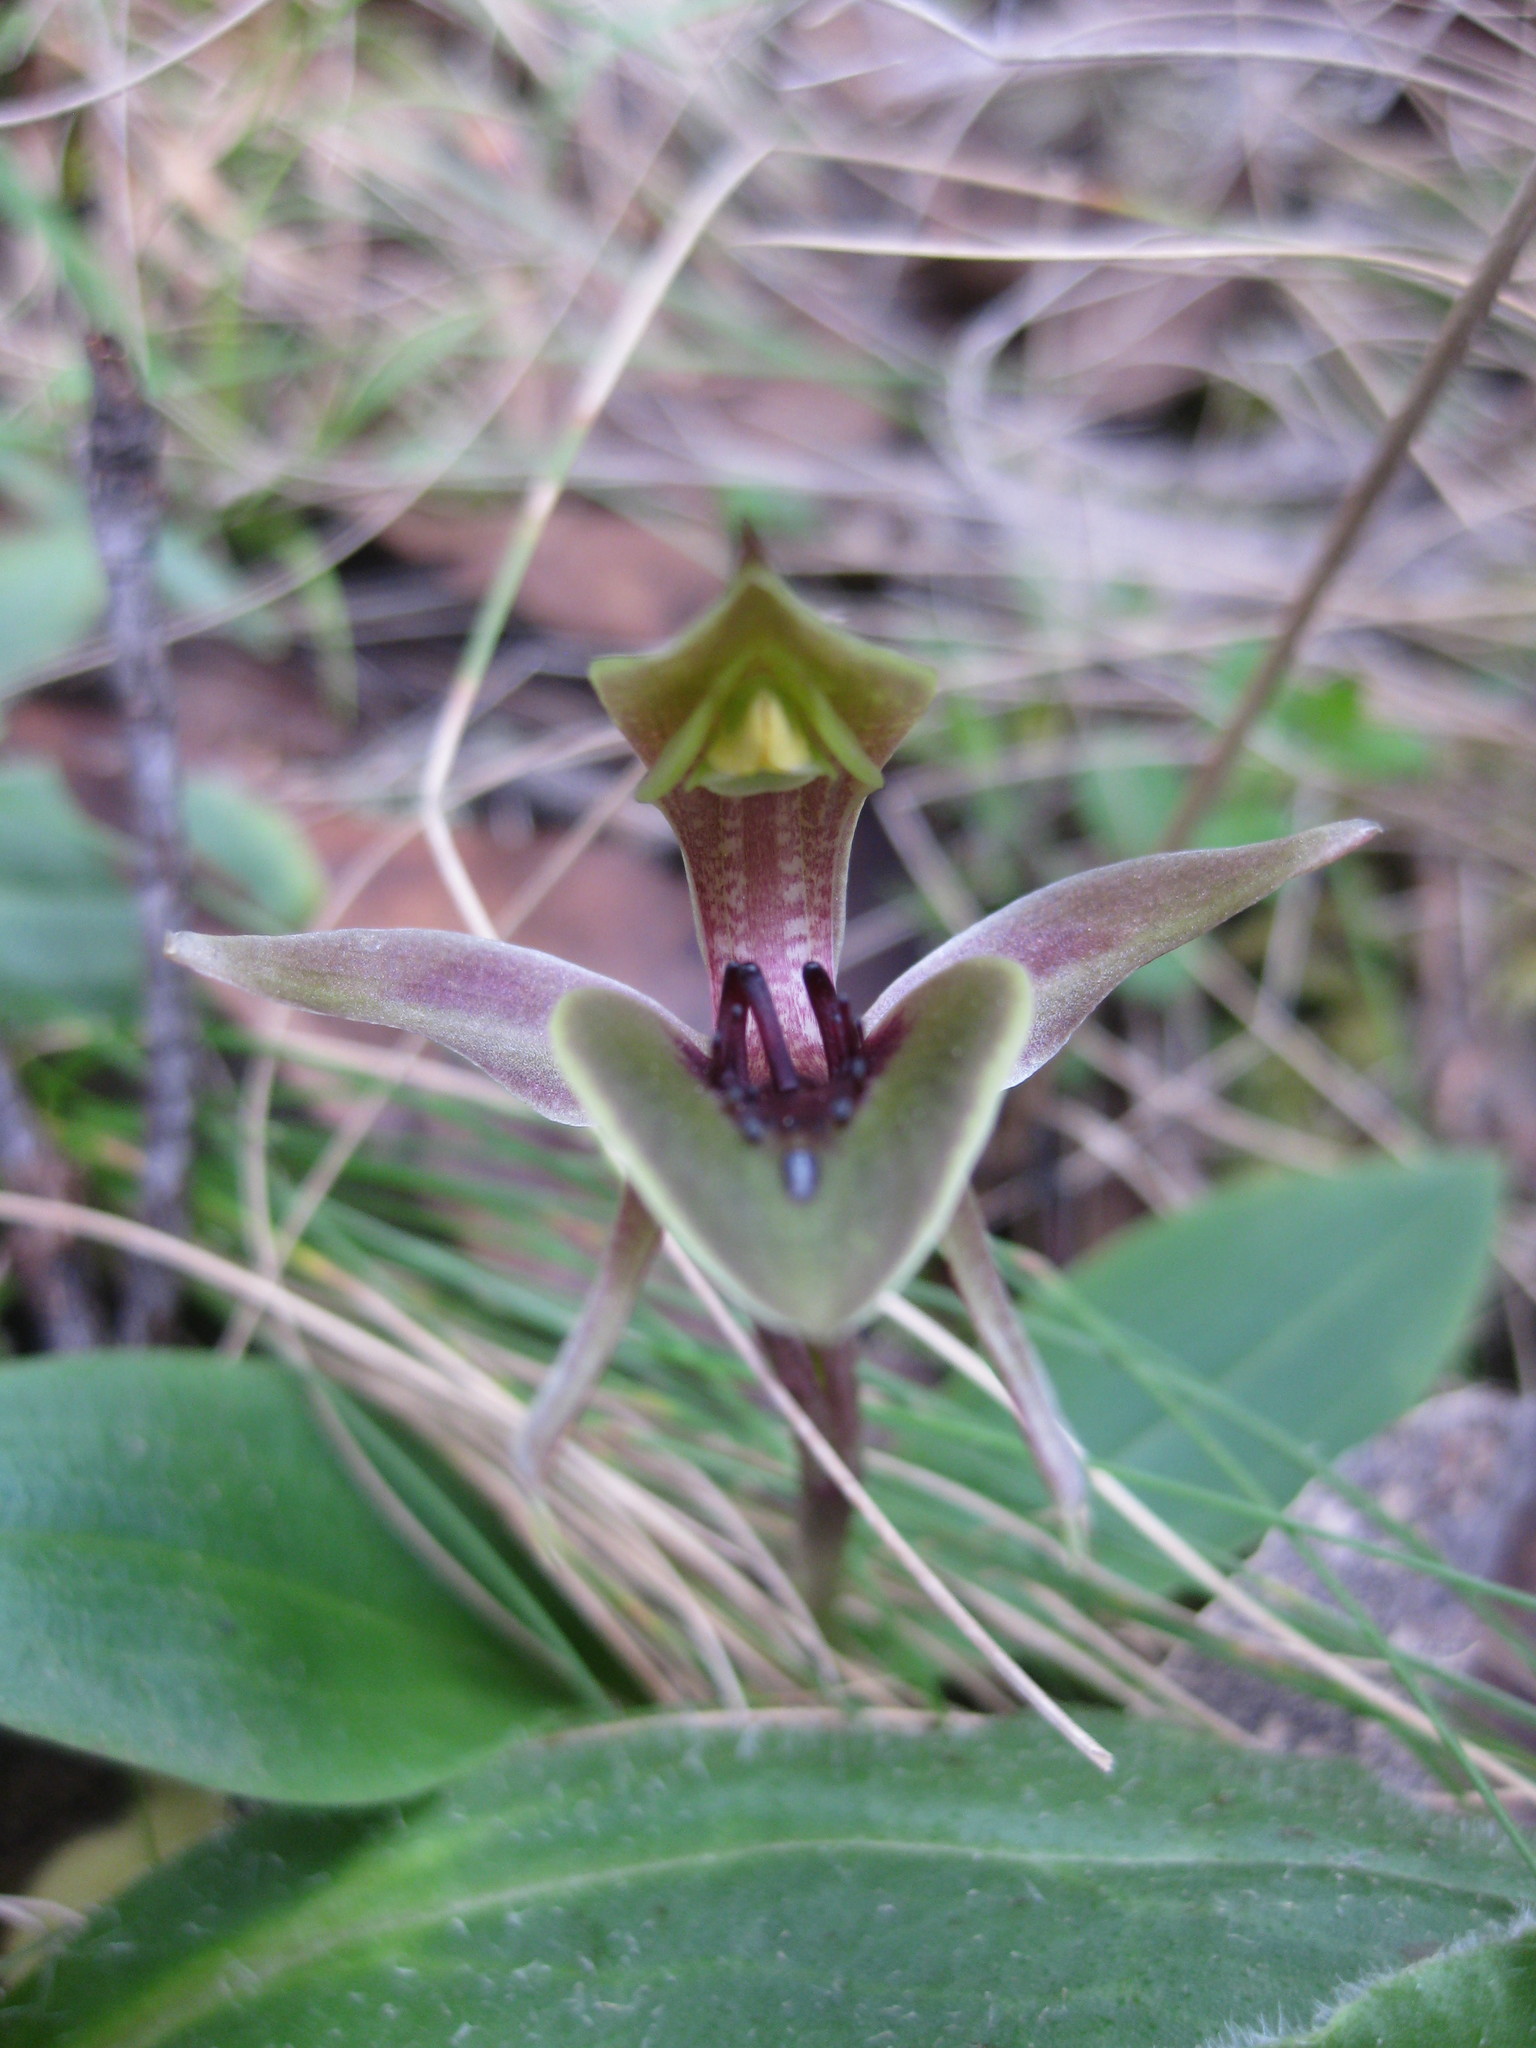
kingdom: Plantae
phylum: Tracheophyta
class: Liliopsida
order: Asparagales
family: Orchidaceae
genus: Chiloglottis
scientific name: Chiloglottis pluricallata
